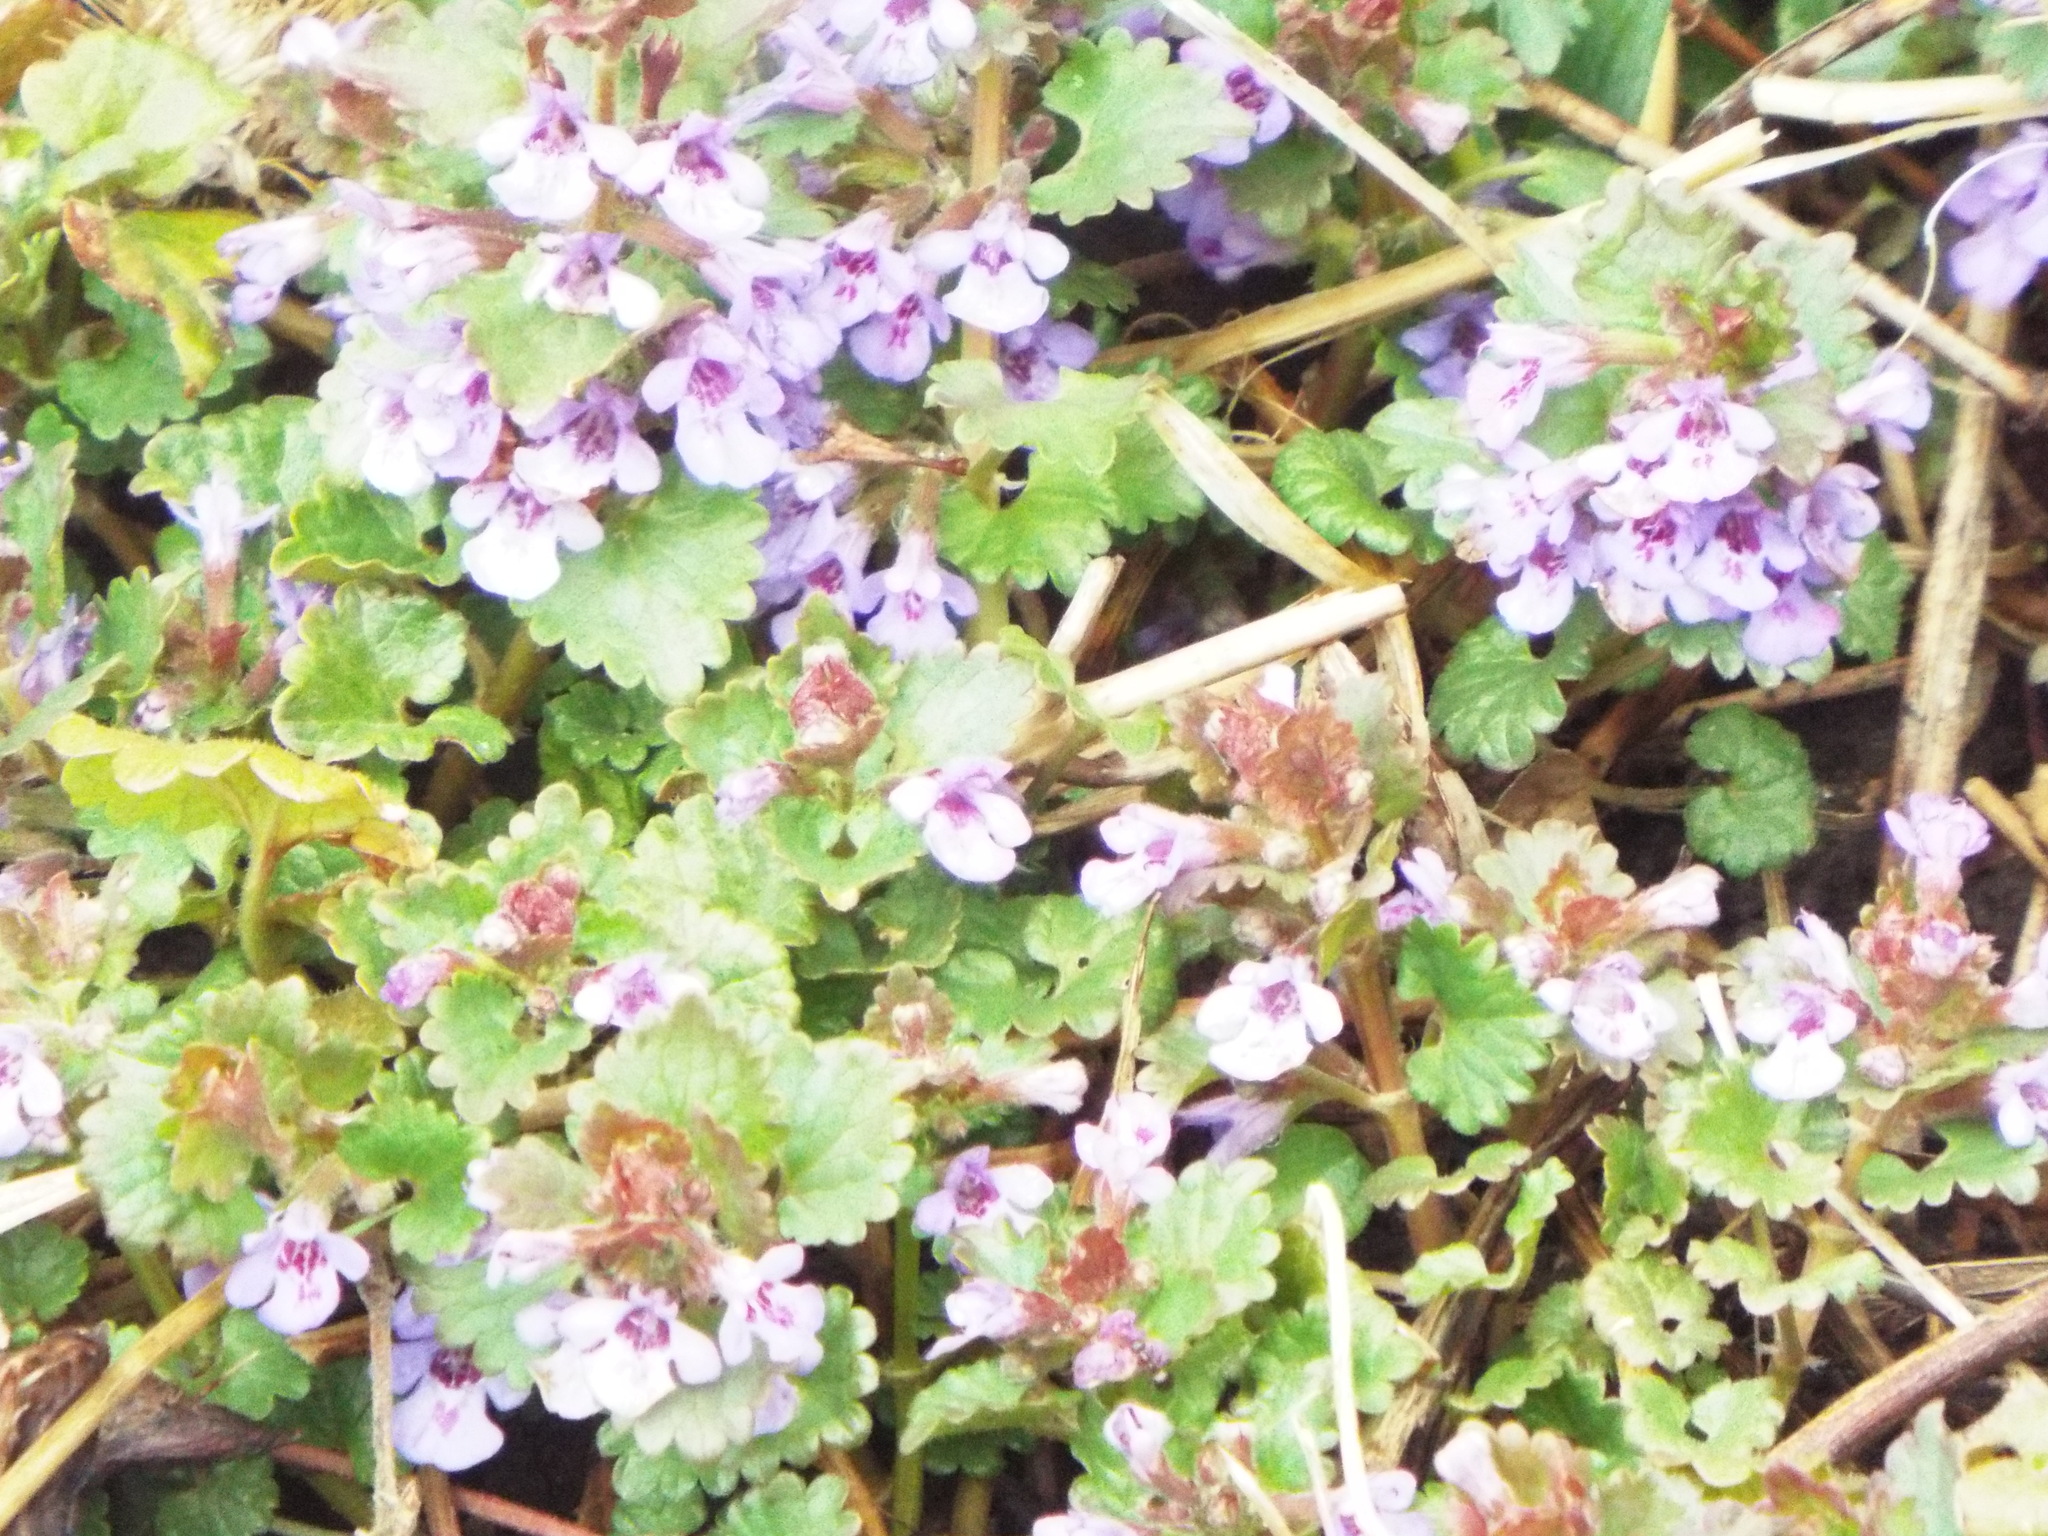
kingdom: Plantae
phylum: Tracheophyta
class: Magnoliopsida
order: Lamiales
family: Lamiaceae
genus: Glechoma
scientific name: Glechoma hederacea
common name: Ground ivy
